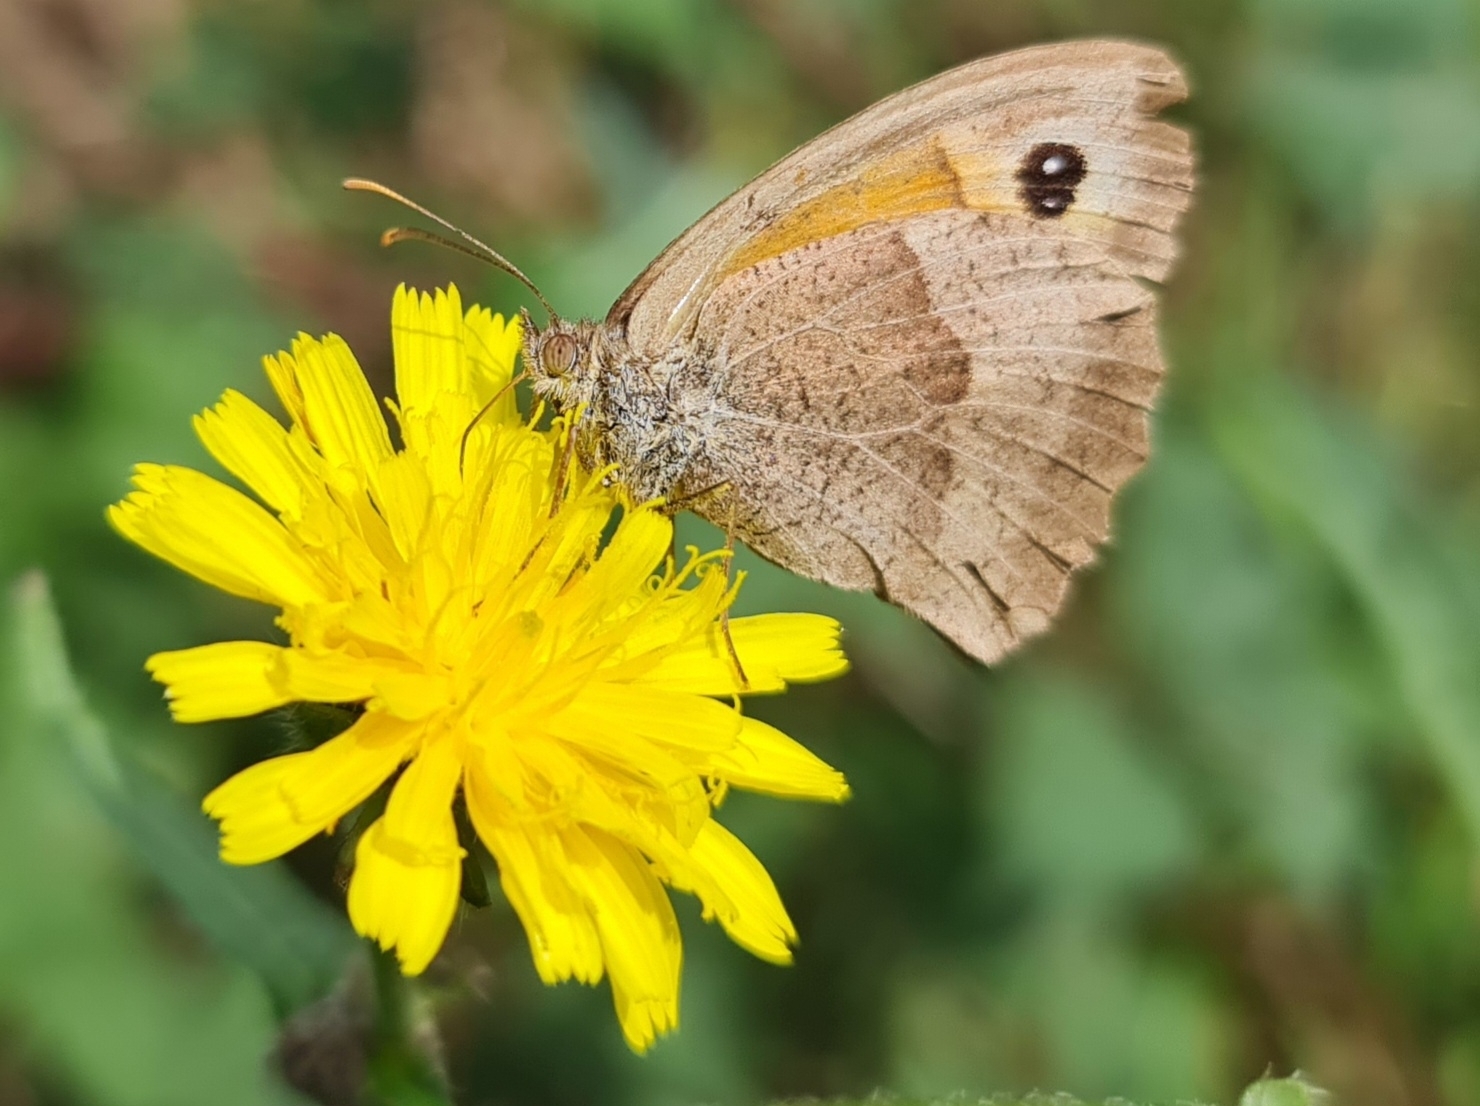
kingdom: Animalia
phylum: Arthropoda
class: Insecta
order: Lepidoptera
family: Nymphalidae
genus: Maniola
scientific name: Maniola jurtina
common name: Meadow brown
